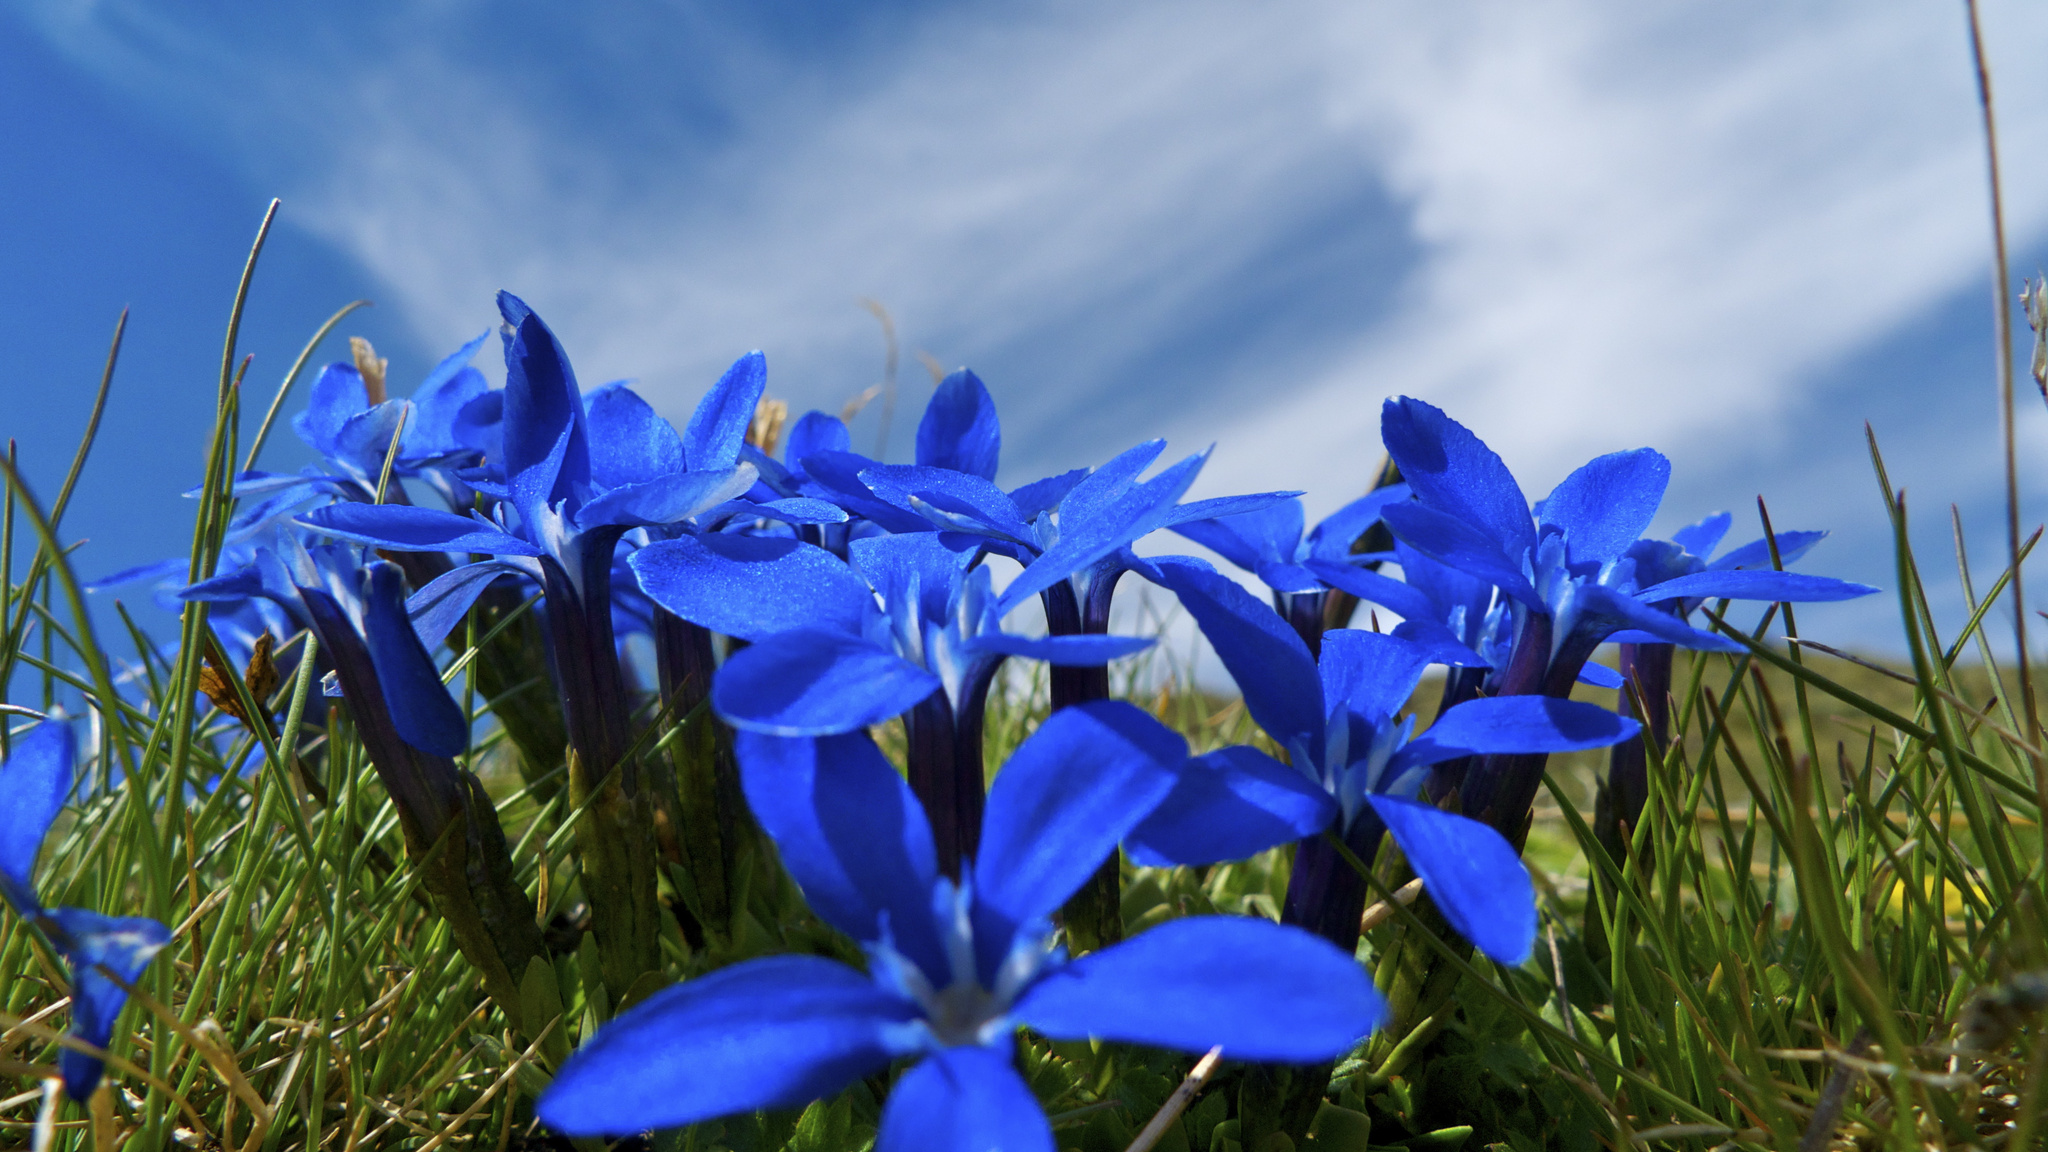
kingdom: Plantae
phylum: Tracheophyta
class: Magnoliopsida
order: Gentianales
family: Gentianaceae
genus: Gentiana
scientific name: Gentiana
